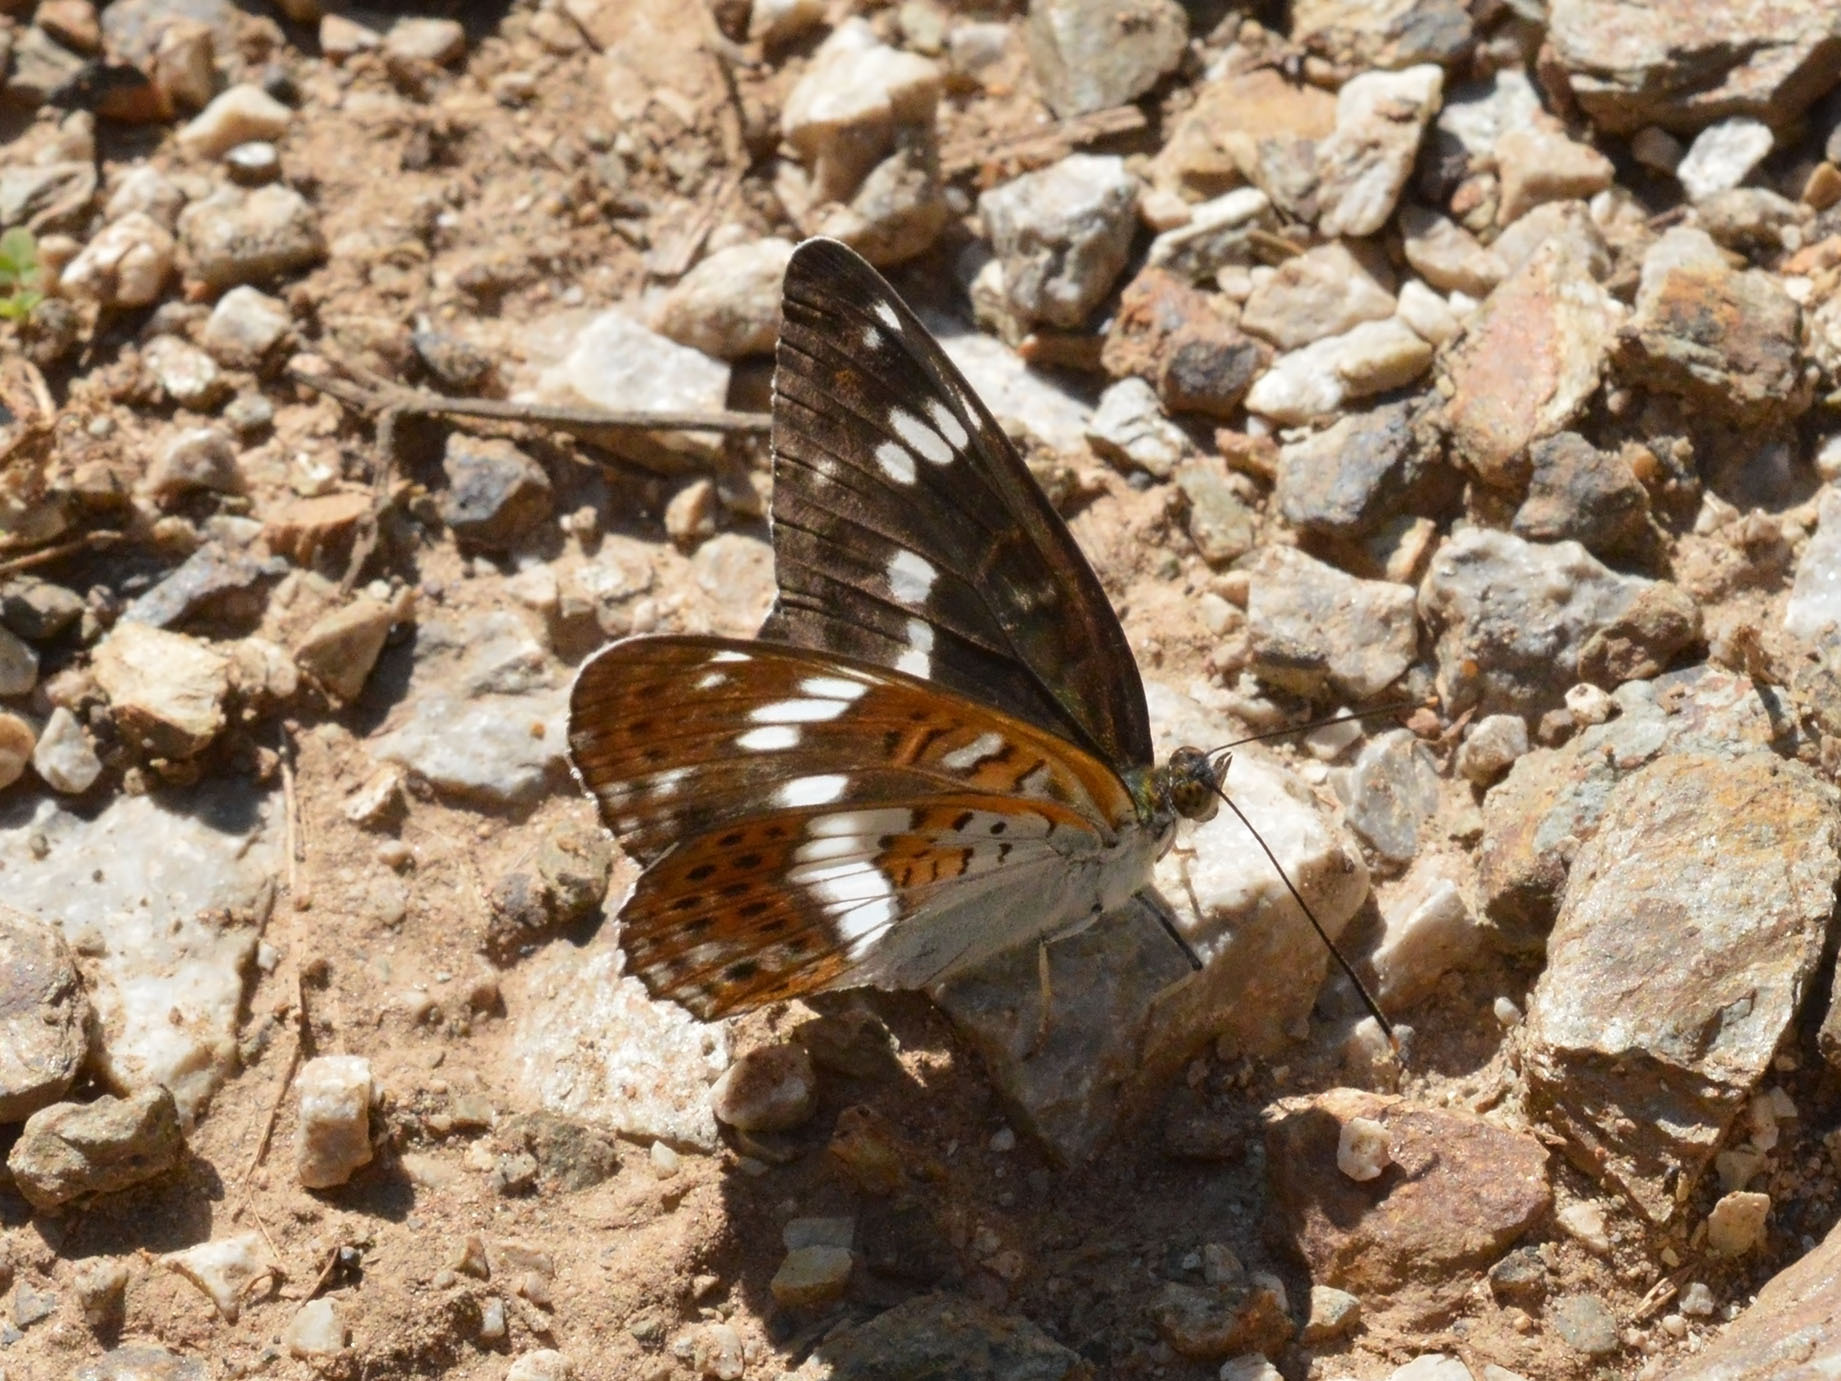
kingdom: Animalia
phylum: Arthropoda
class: Insecta
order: Lepidoptera
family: Nymphalidae
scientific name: Nymphalidae
